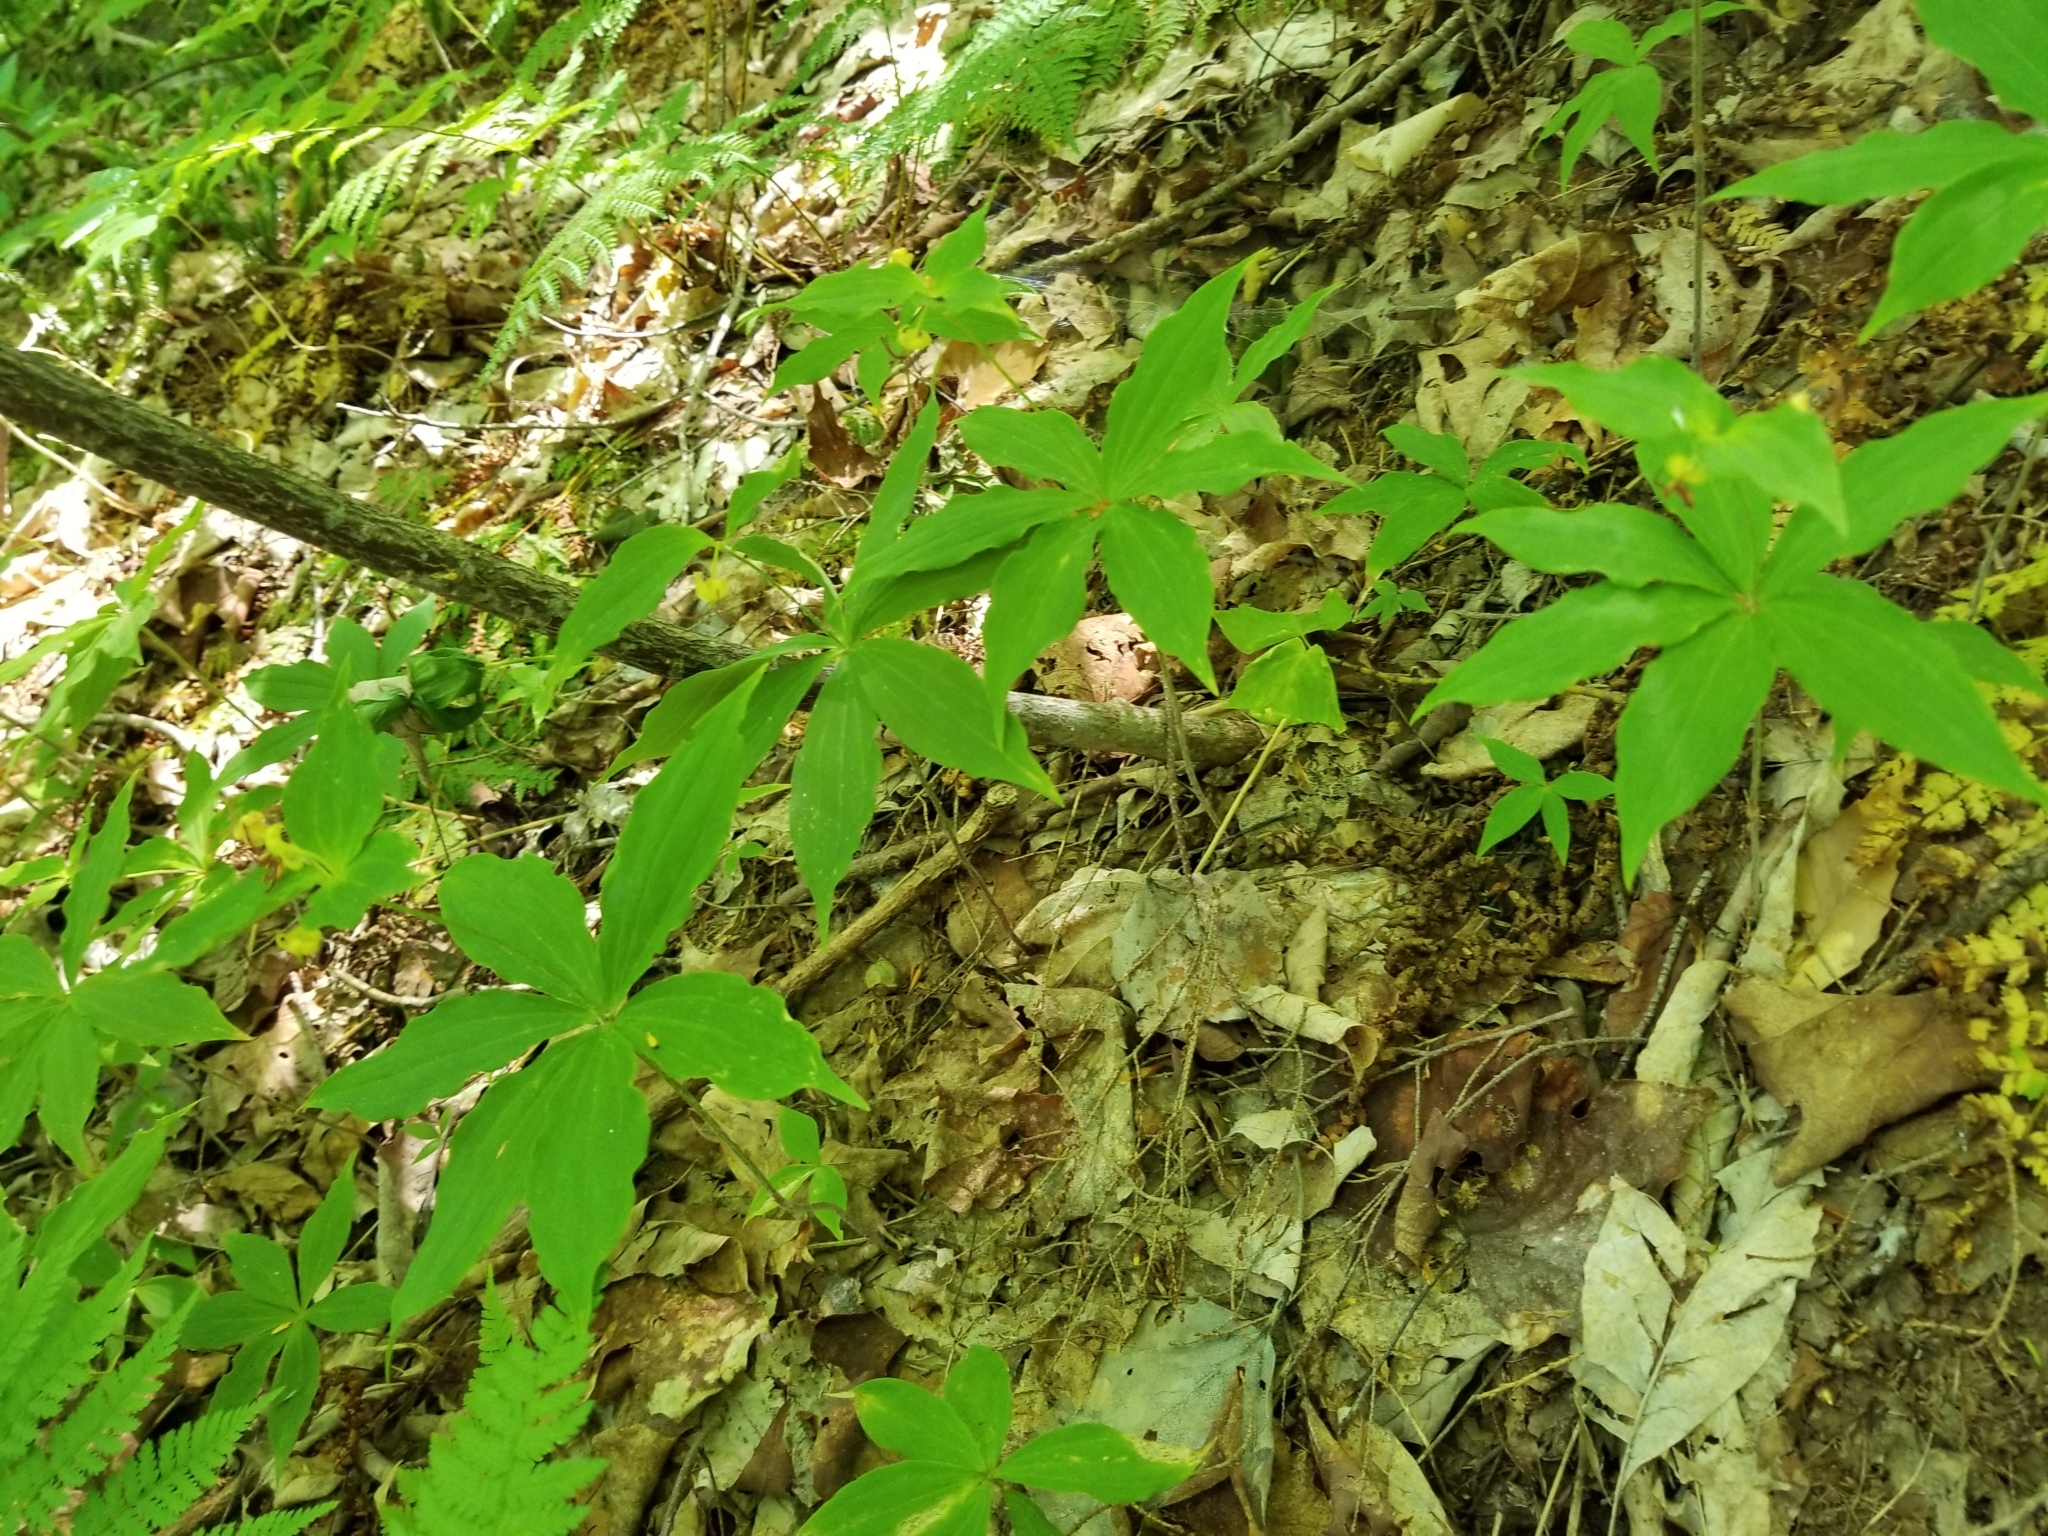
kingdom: Plantae
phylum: Tracheophyta
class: Liliopsida
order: Liliales
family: Liliaceae
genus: Medeola
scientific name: Medeola virginiana
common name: Indian cucumber-root
